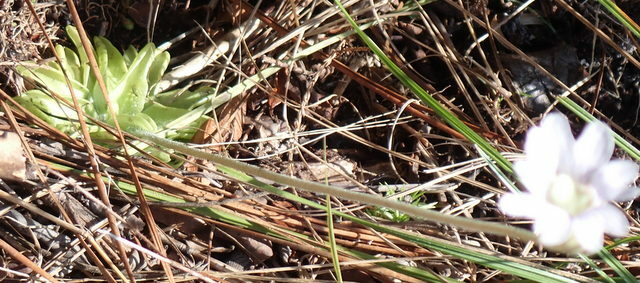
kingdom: Plantae
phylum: Tracheophyta
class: Magnoliopsida
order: Lamiales
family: Lentibulariaceae
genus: Pinguicula
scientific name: Pinguicula caerulea
